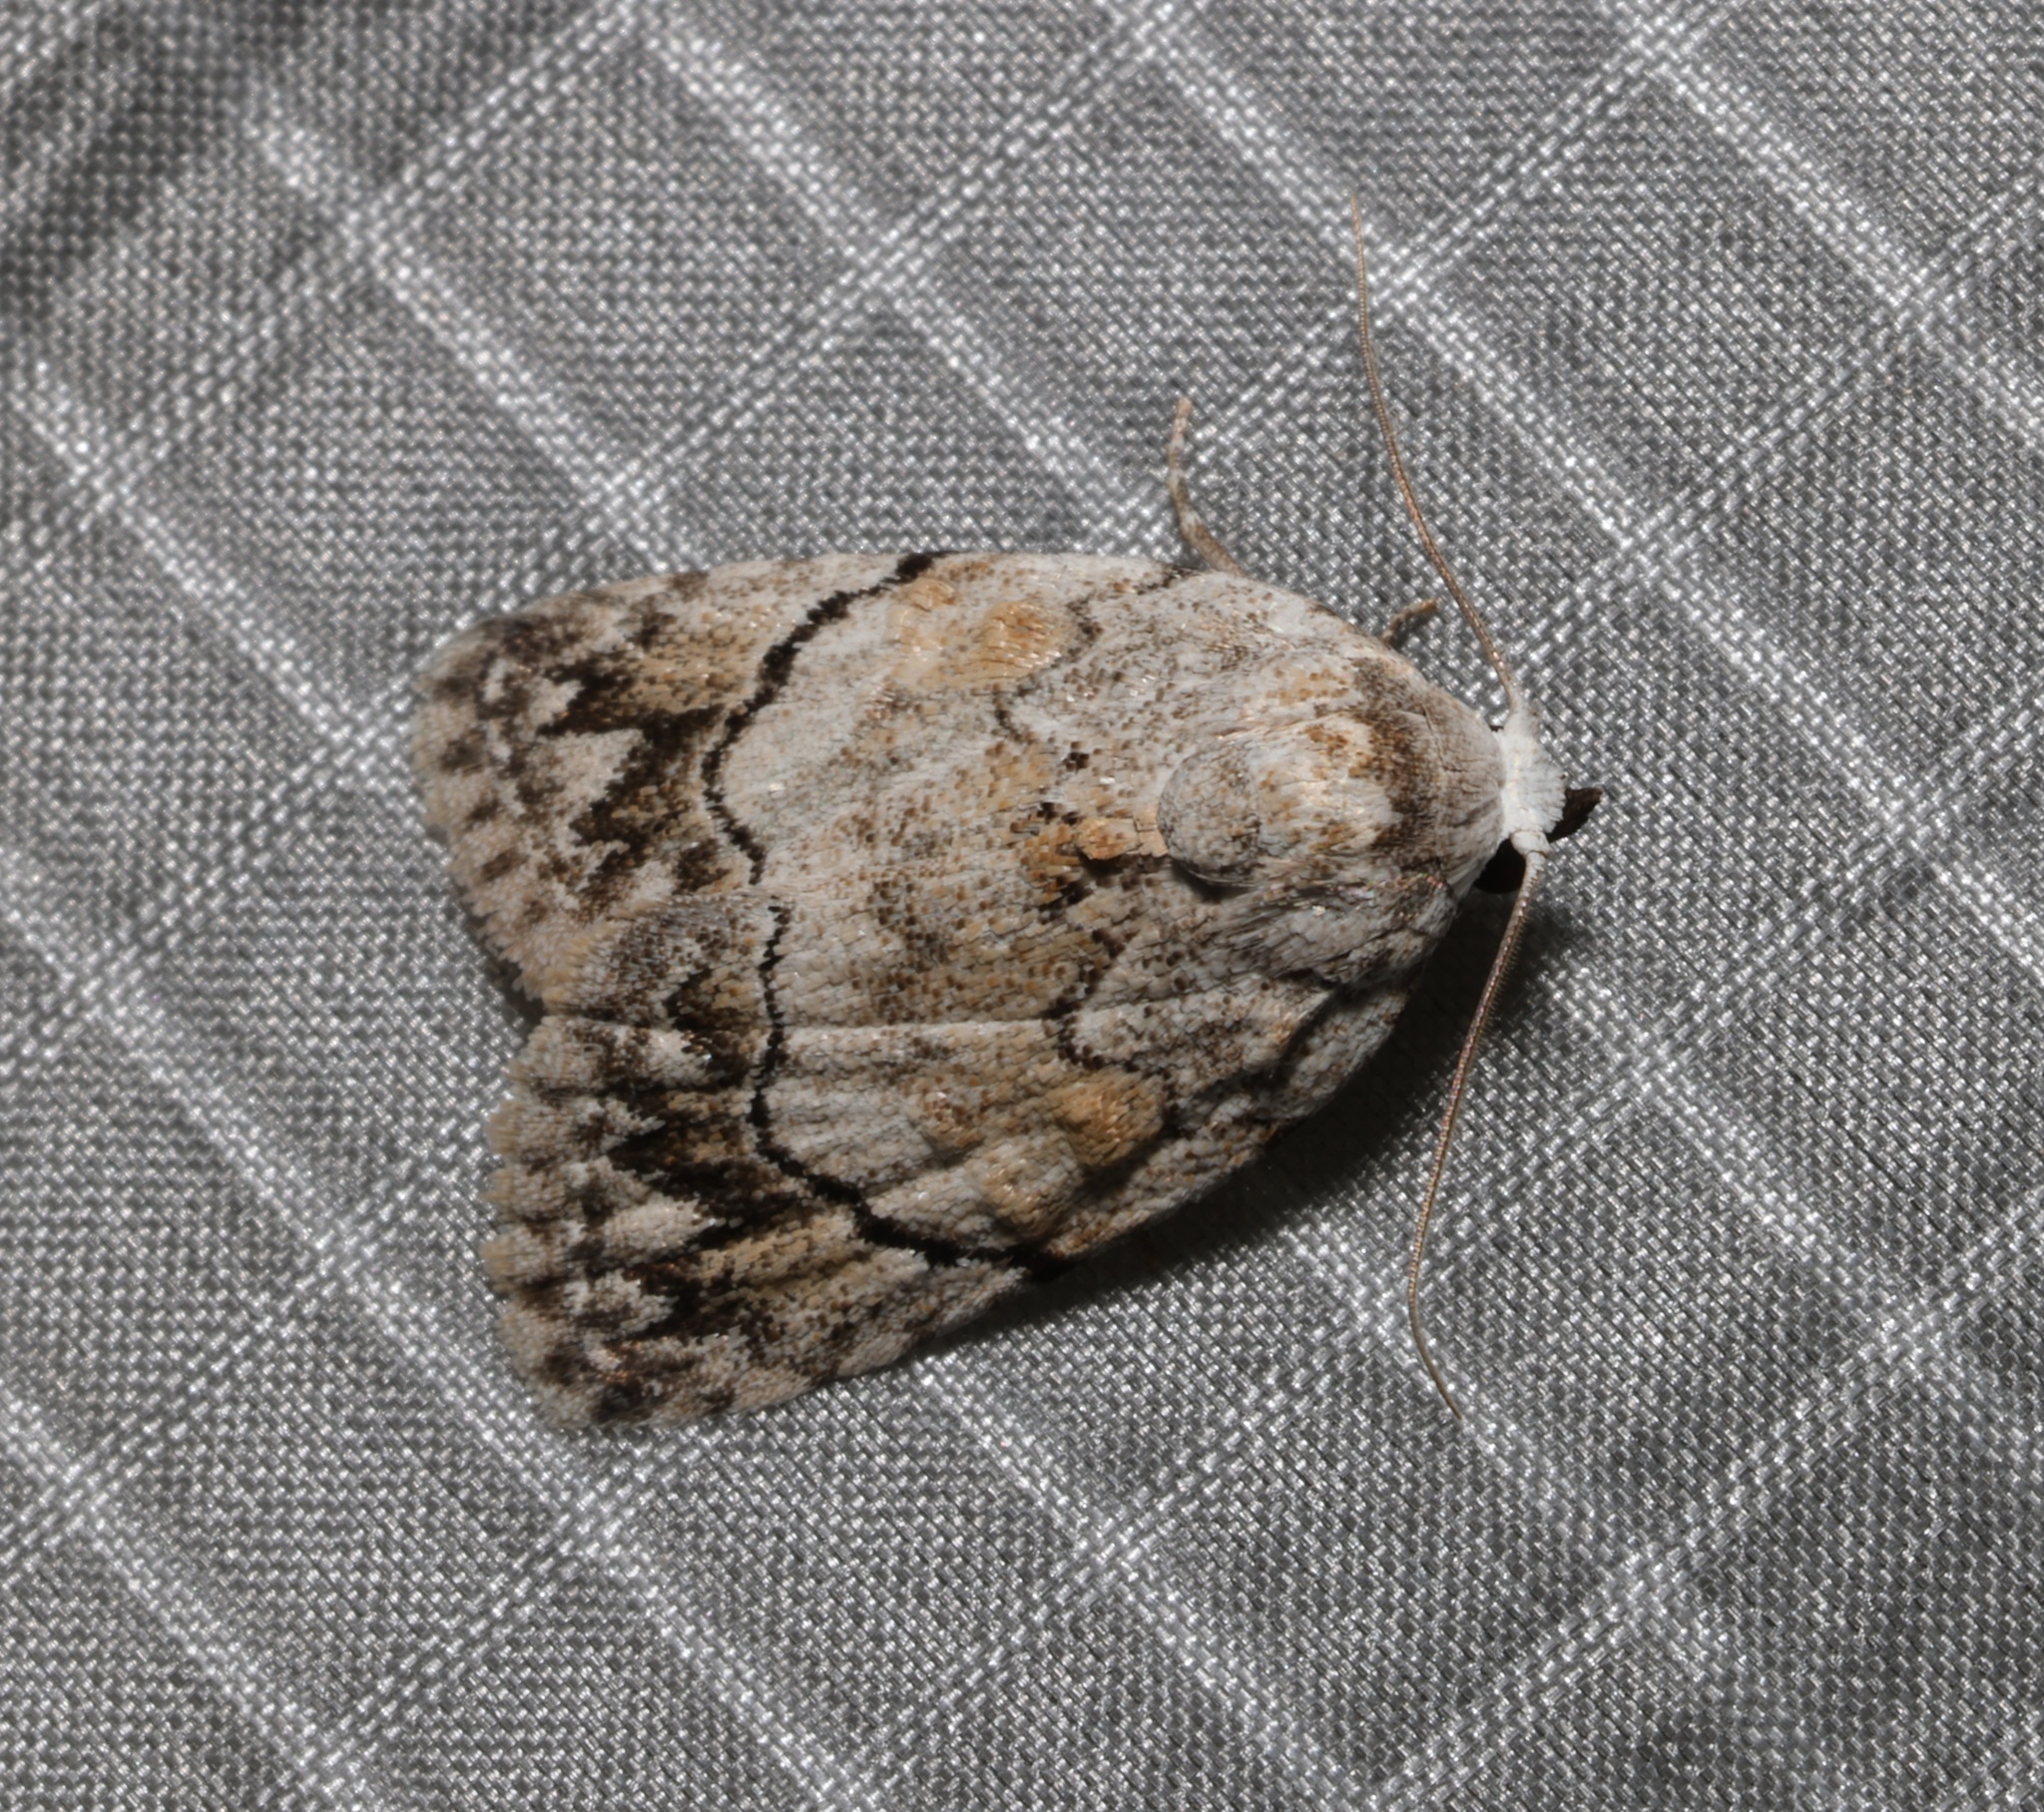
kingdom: Animalia
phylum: Arthropoda
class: Insecta
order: Lepidoptera
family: Nolidae
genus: Melanographia
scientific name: Melanographia flexilineata
